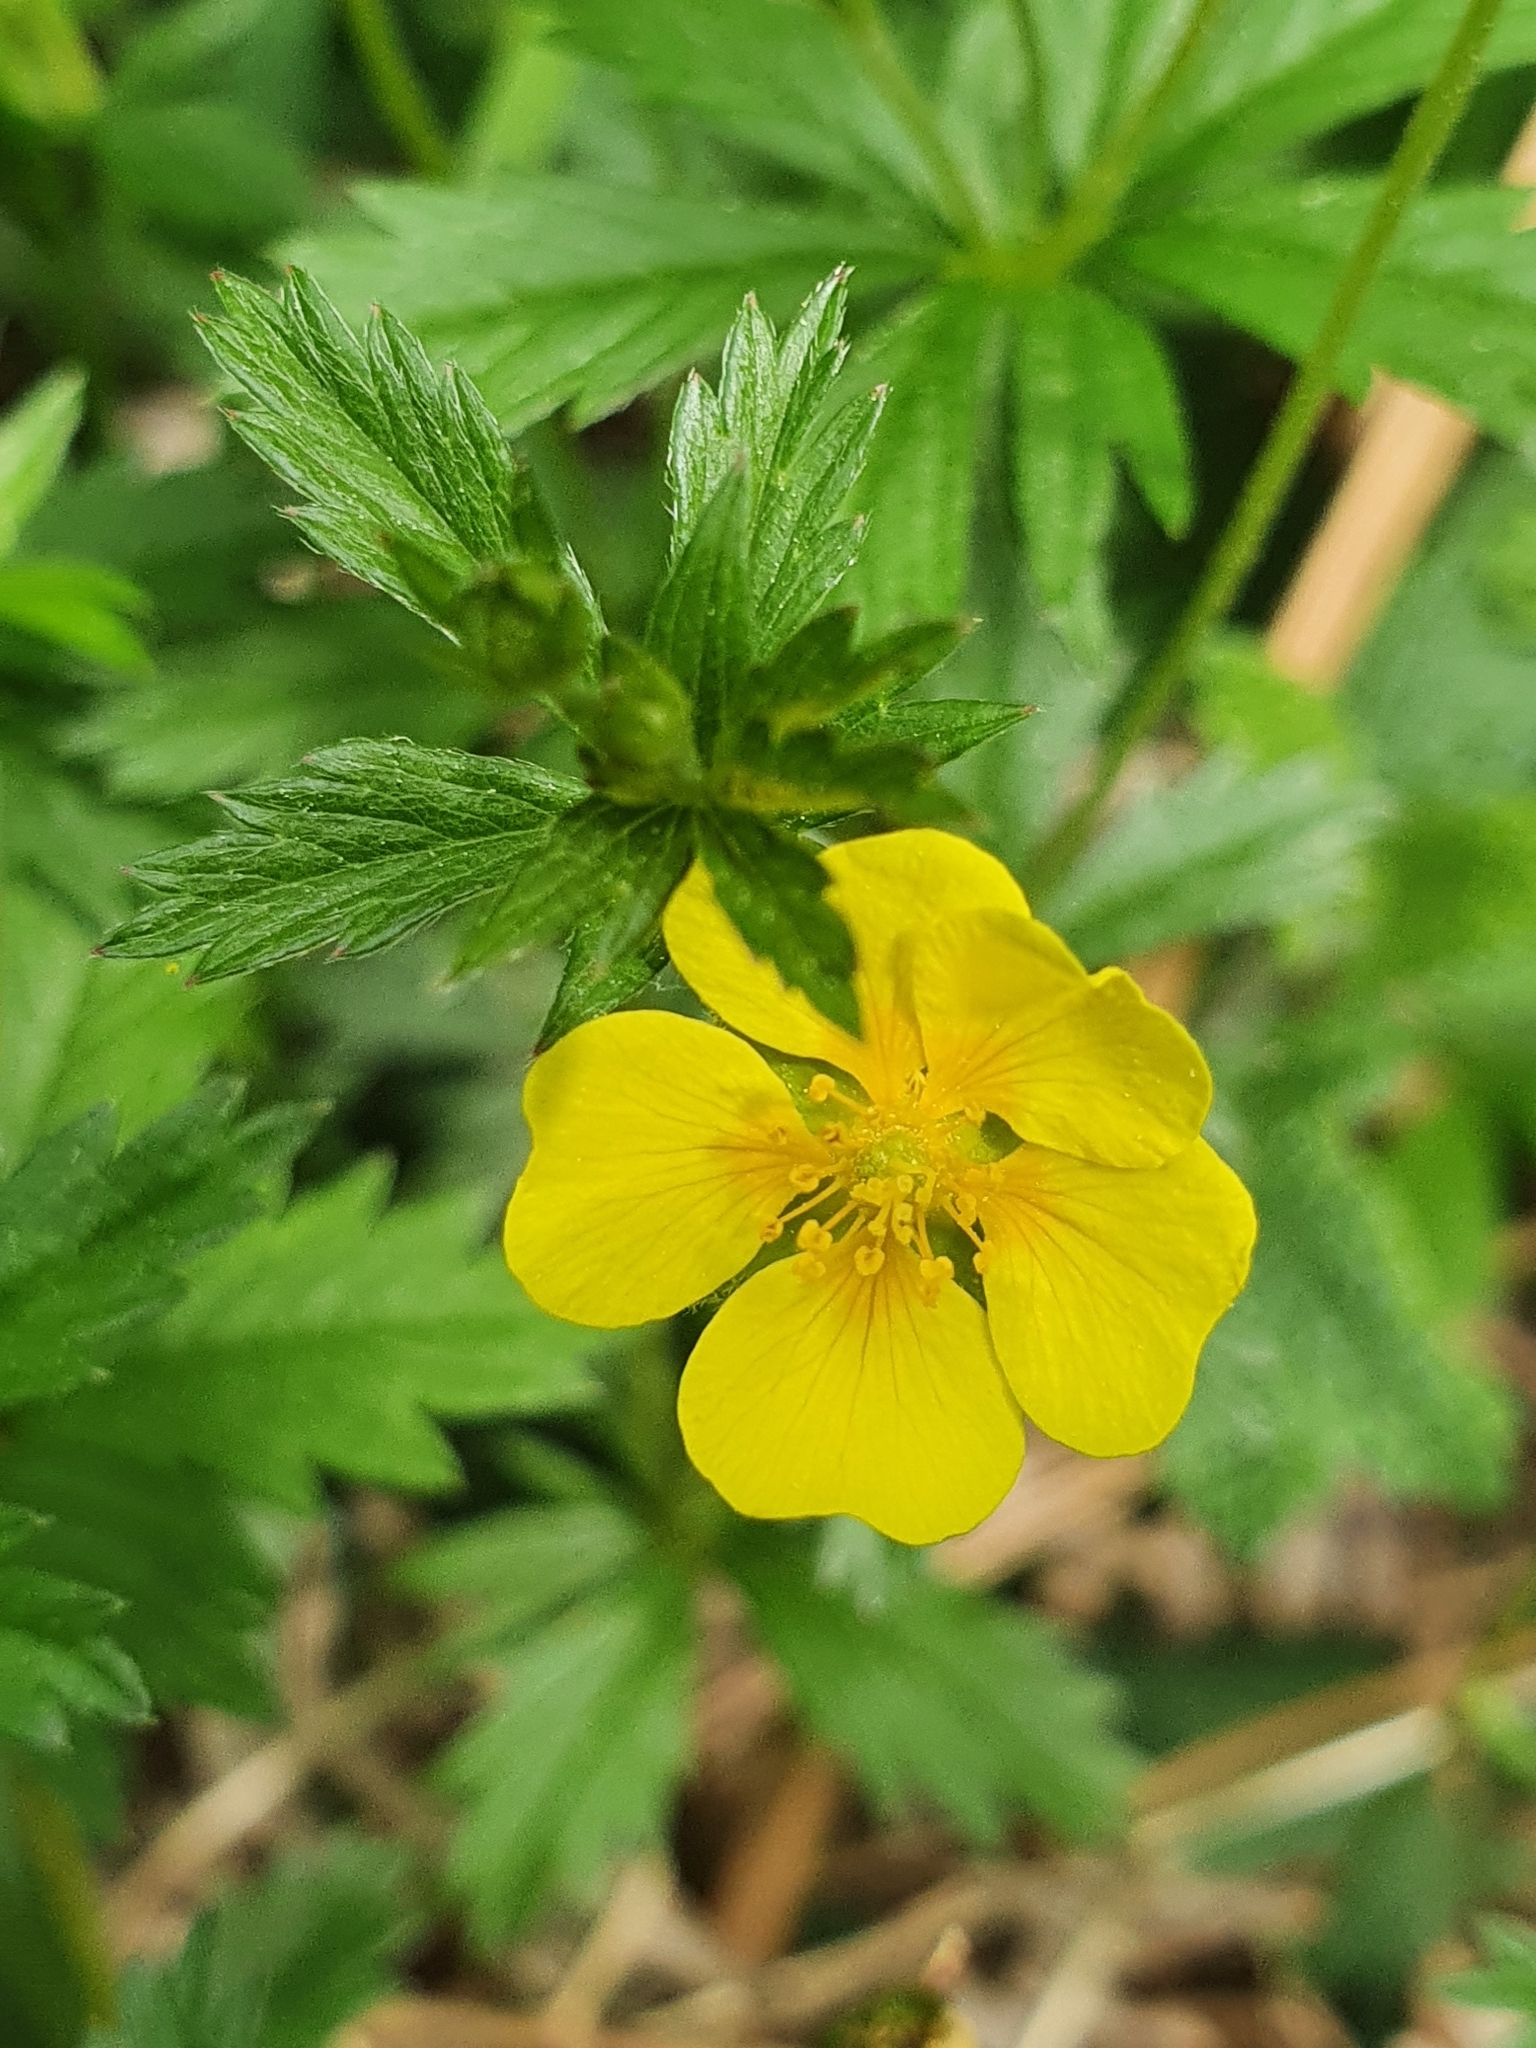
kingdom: Plantae
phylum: Tracheophyta
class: Magnoliopsida
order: Rosales
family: Rosaceae
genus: Potentilla
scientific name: Potentilla erecta
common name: Tormentil
